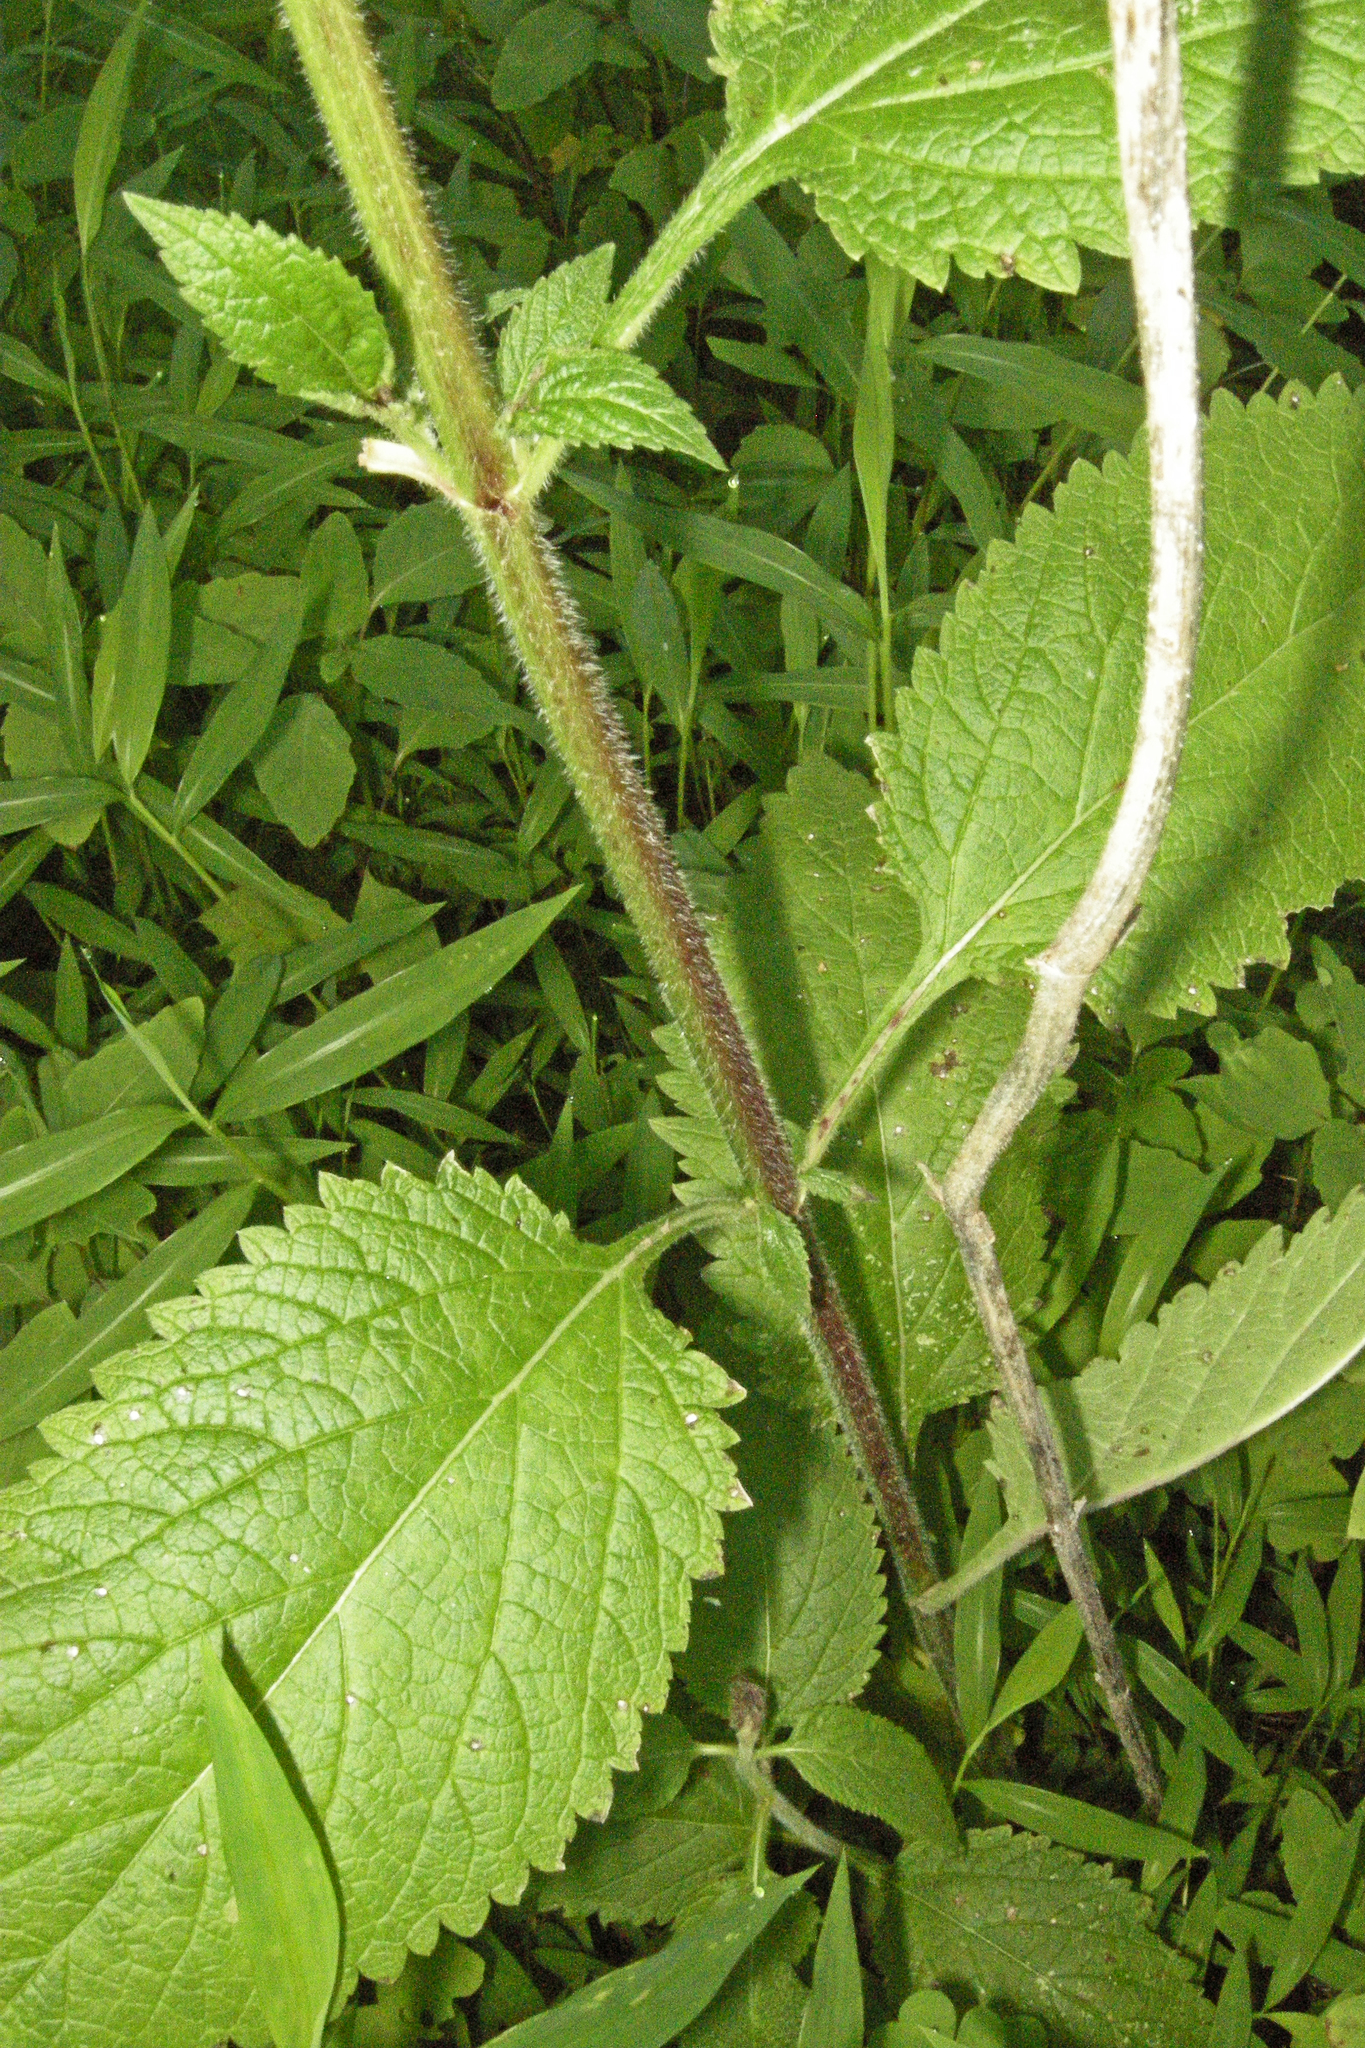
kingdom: Plantae
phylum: Tracheophyta
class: Magnoliopsida
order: Lamiales
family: Verbenaceae
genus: Verbena
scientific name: Verbena urticifolia
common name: Nettle-leaved vervain
